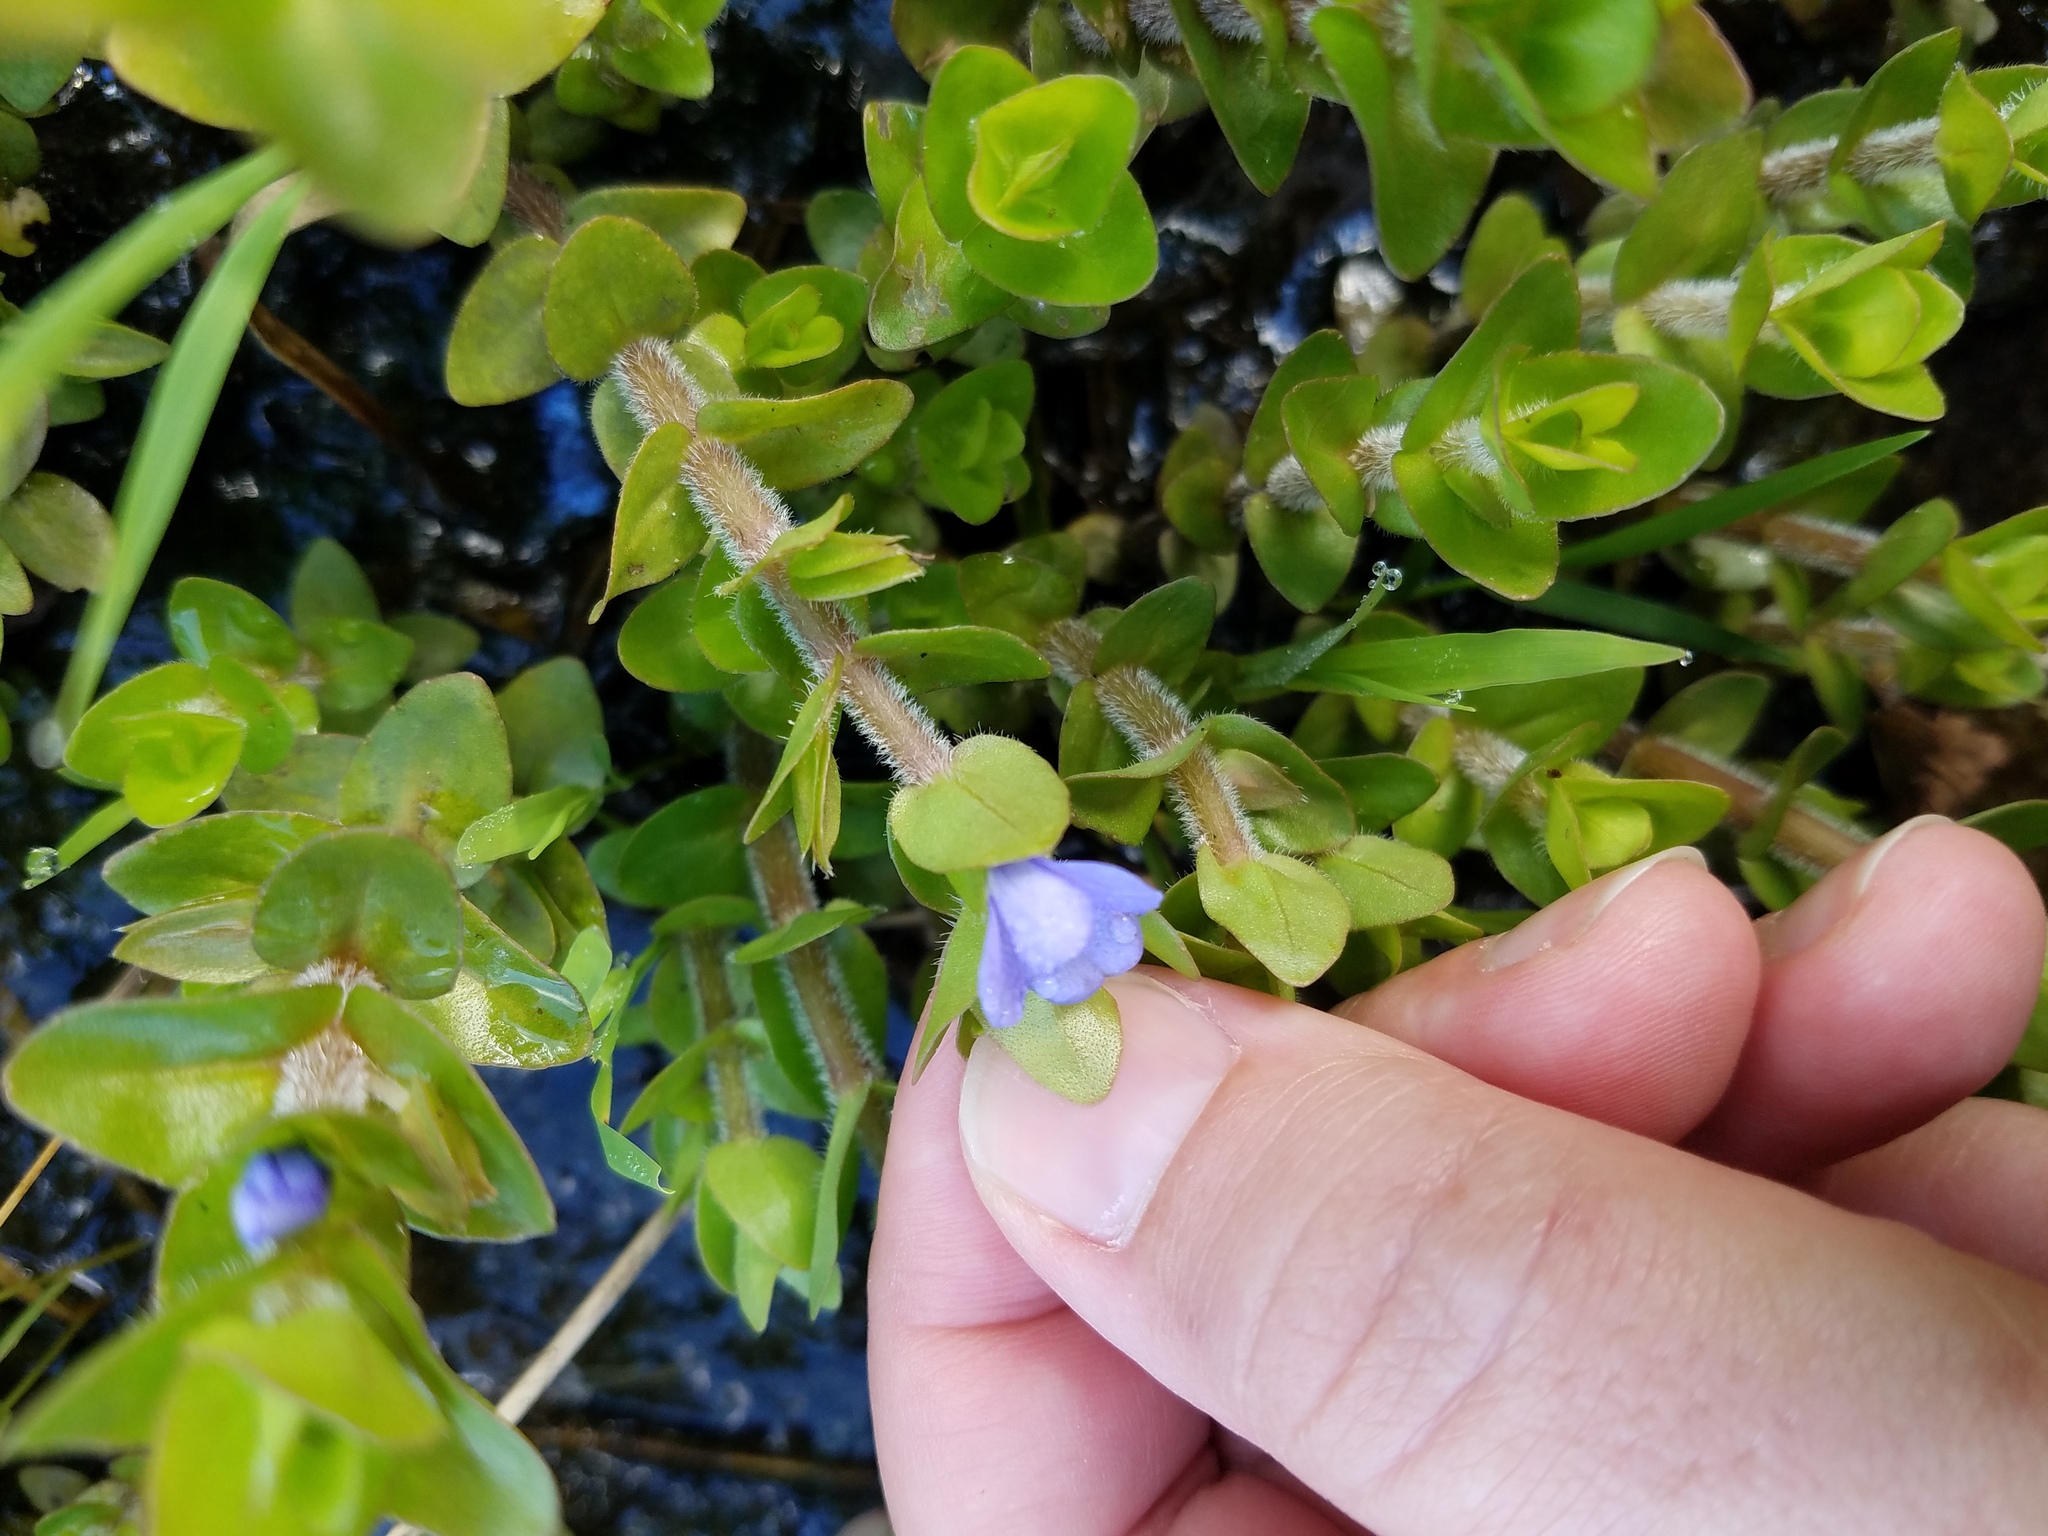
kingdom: Plantae
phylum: Tracheophyta
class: Magnoliopsida
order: Lamiales
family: Plantaginaceae
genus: Bacopa
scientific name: Bacopa caroliniana
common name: Lemon bacopa
